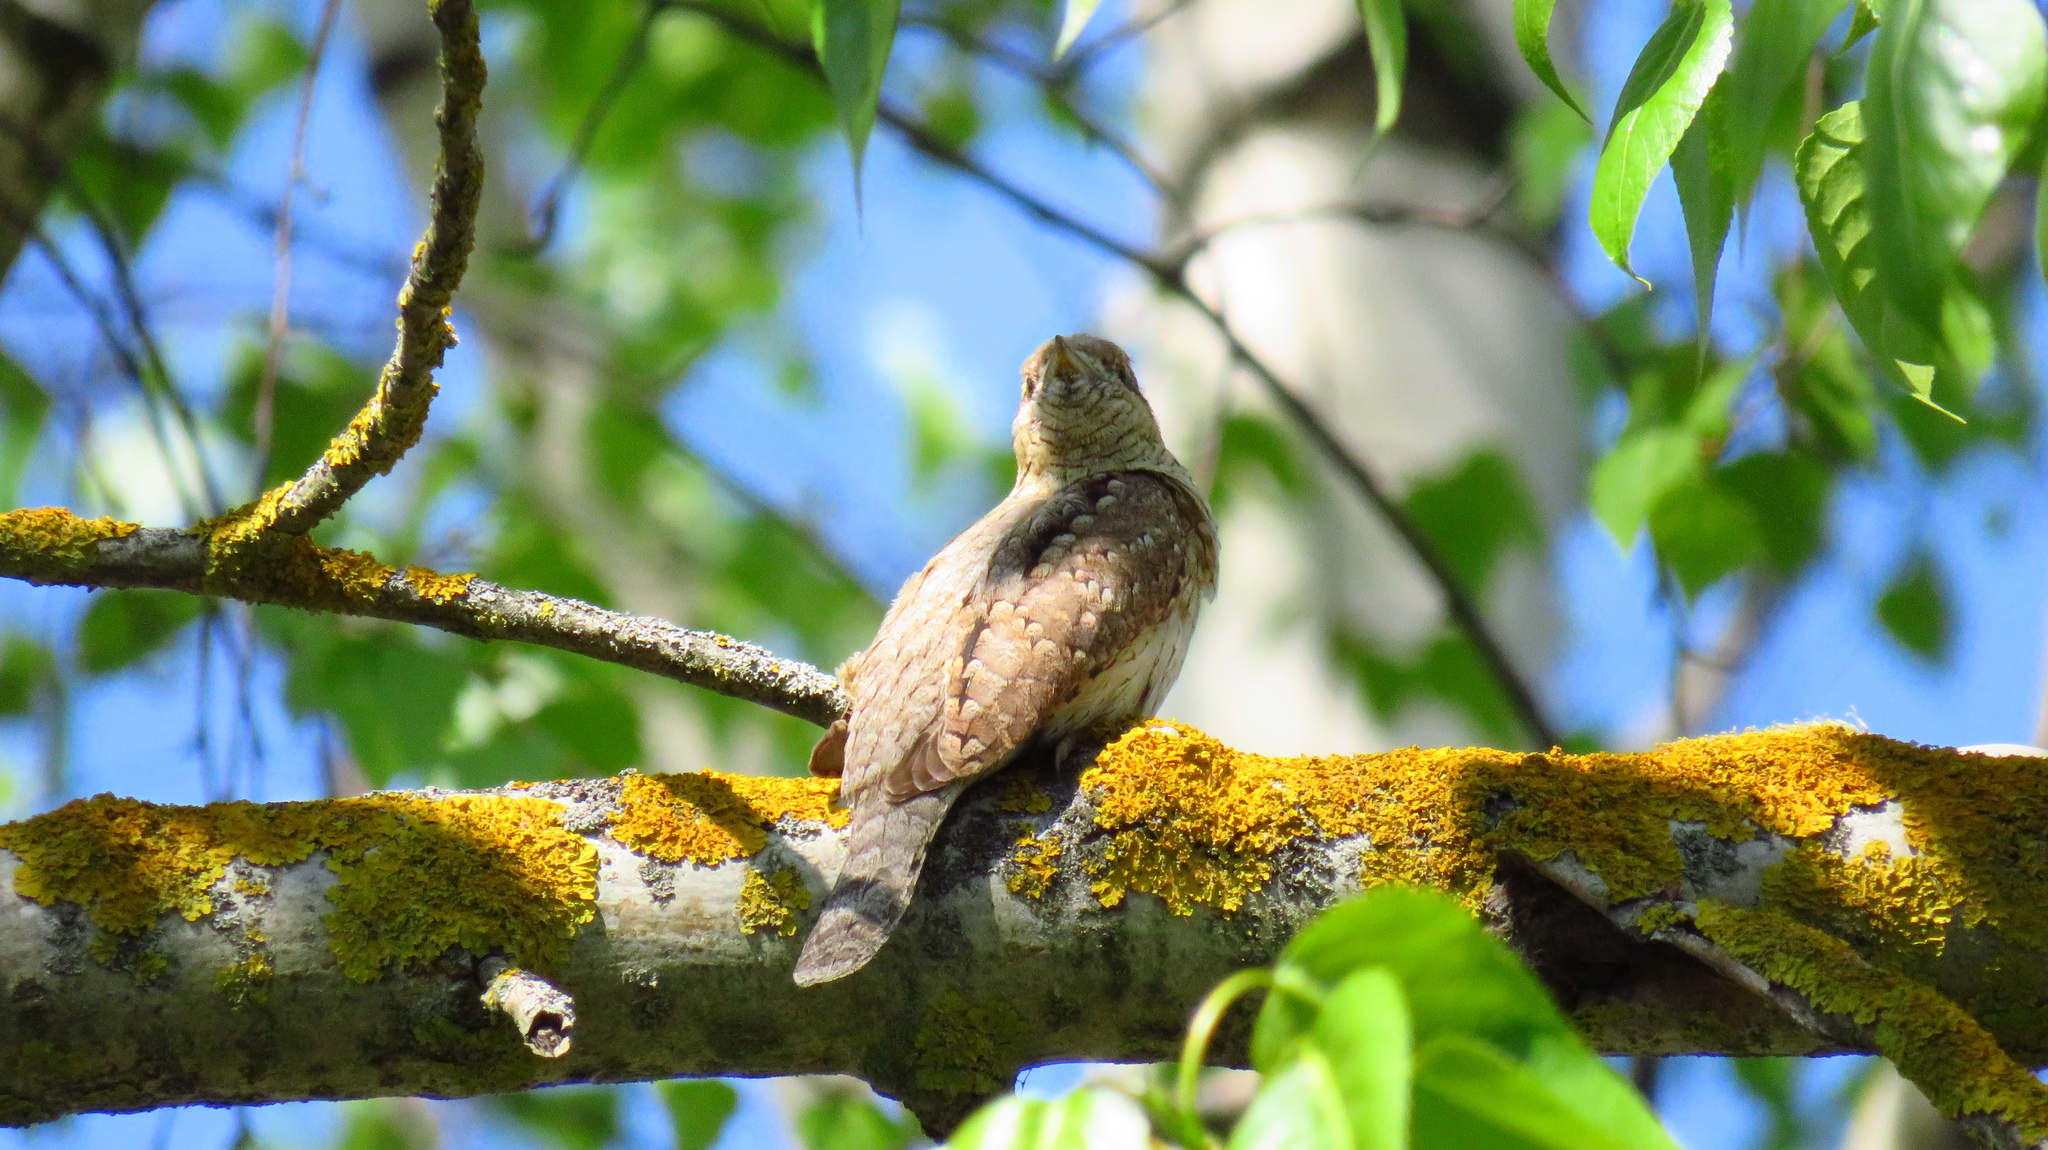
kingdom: Animalia
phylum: Chordata
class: Aves
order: Piciformes
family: Picidae
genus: Jynx
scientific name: Jynx torquilla
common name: Eurasian wryneck
